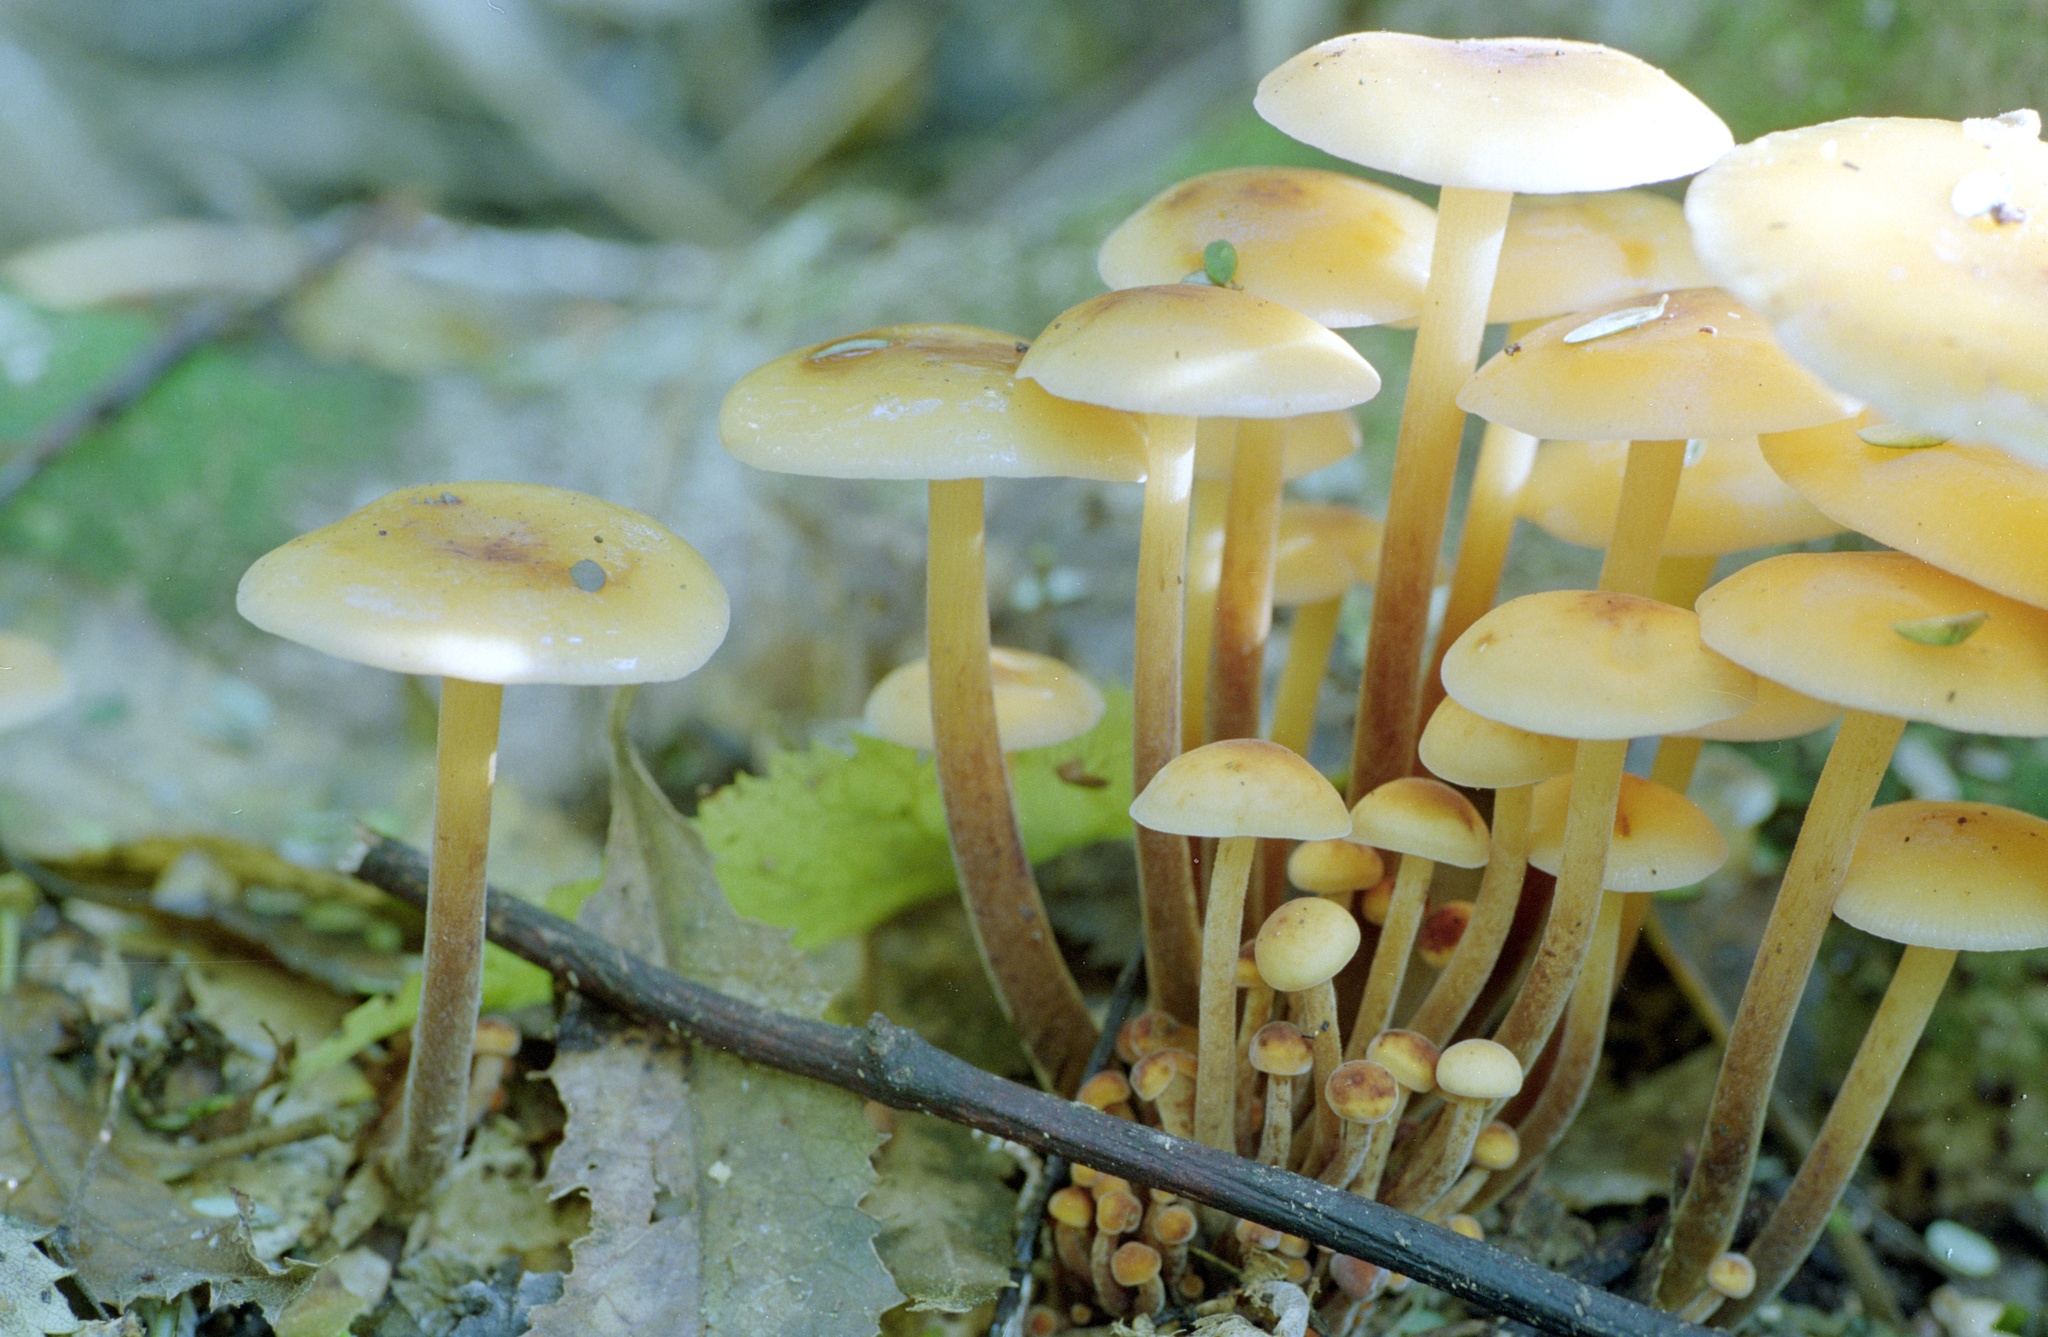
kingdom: Fungi
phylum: Basidiomycota
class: Agaricomycetes
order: Agaricales
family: Physalacriaceae
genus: Flammulina
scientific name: Flammulina velutipes
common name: Velvet shank
